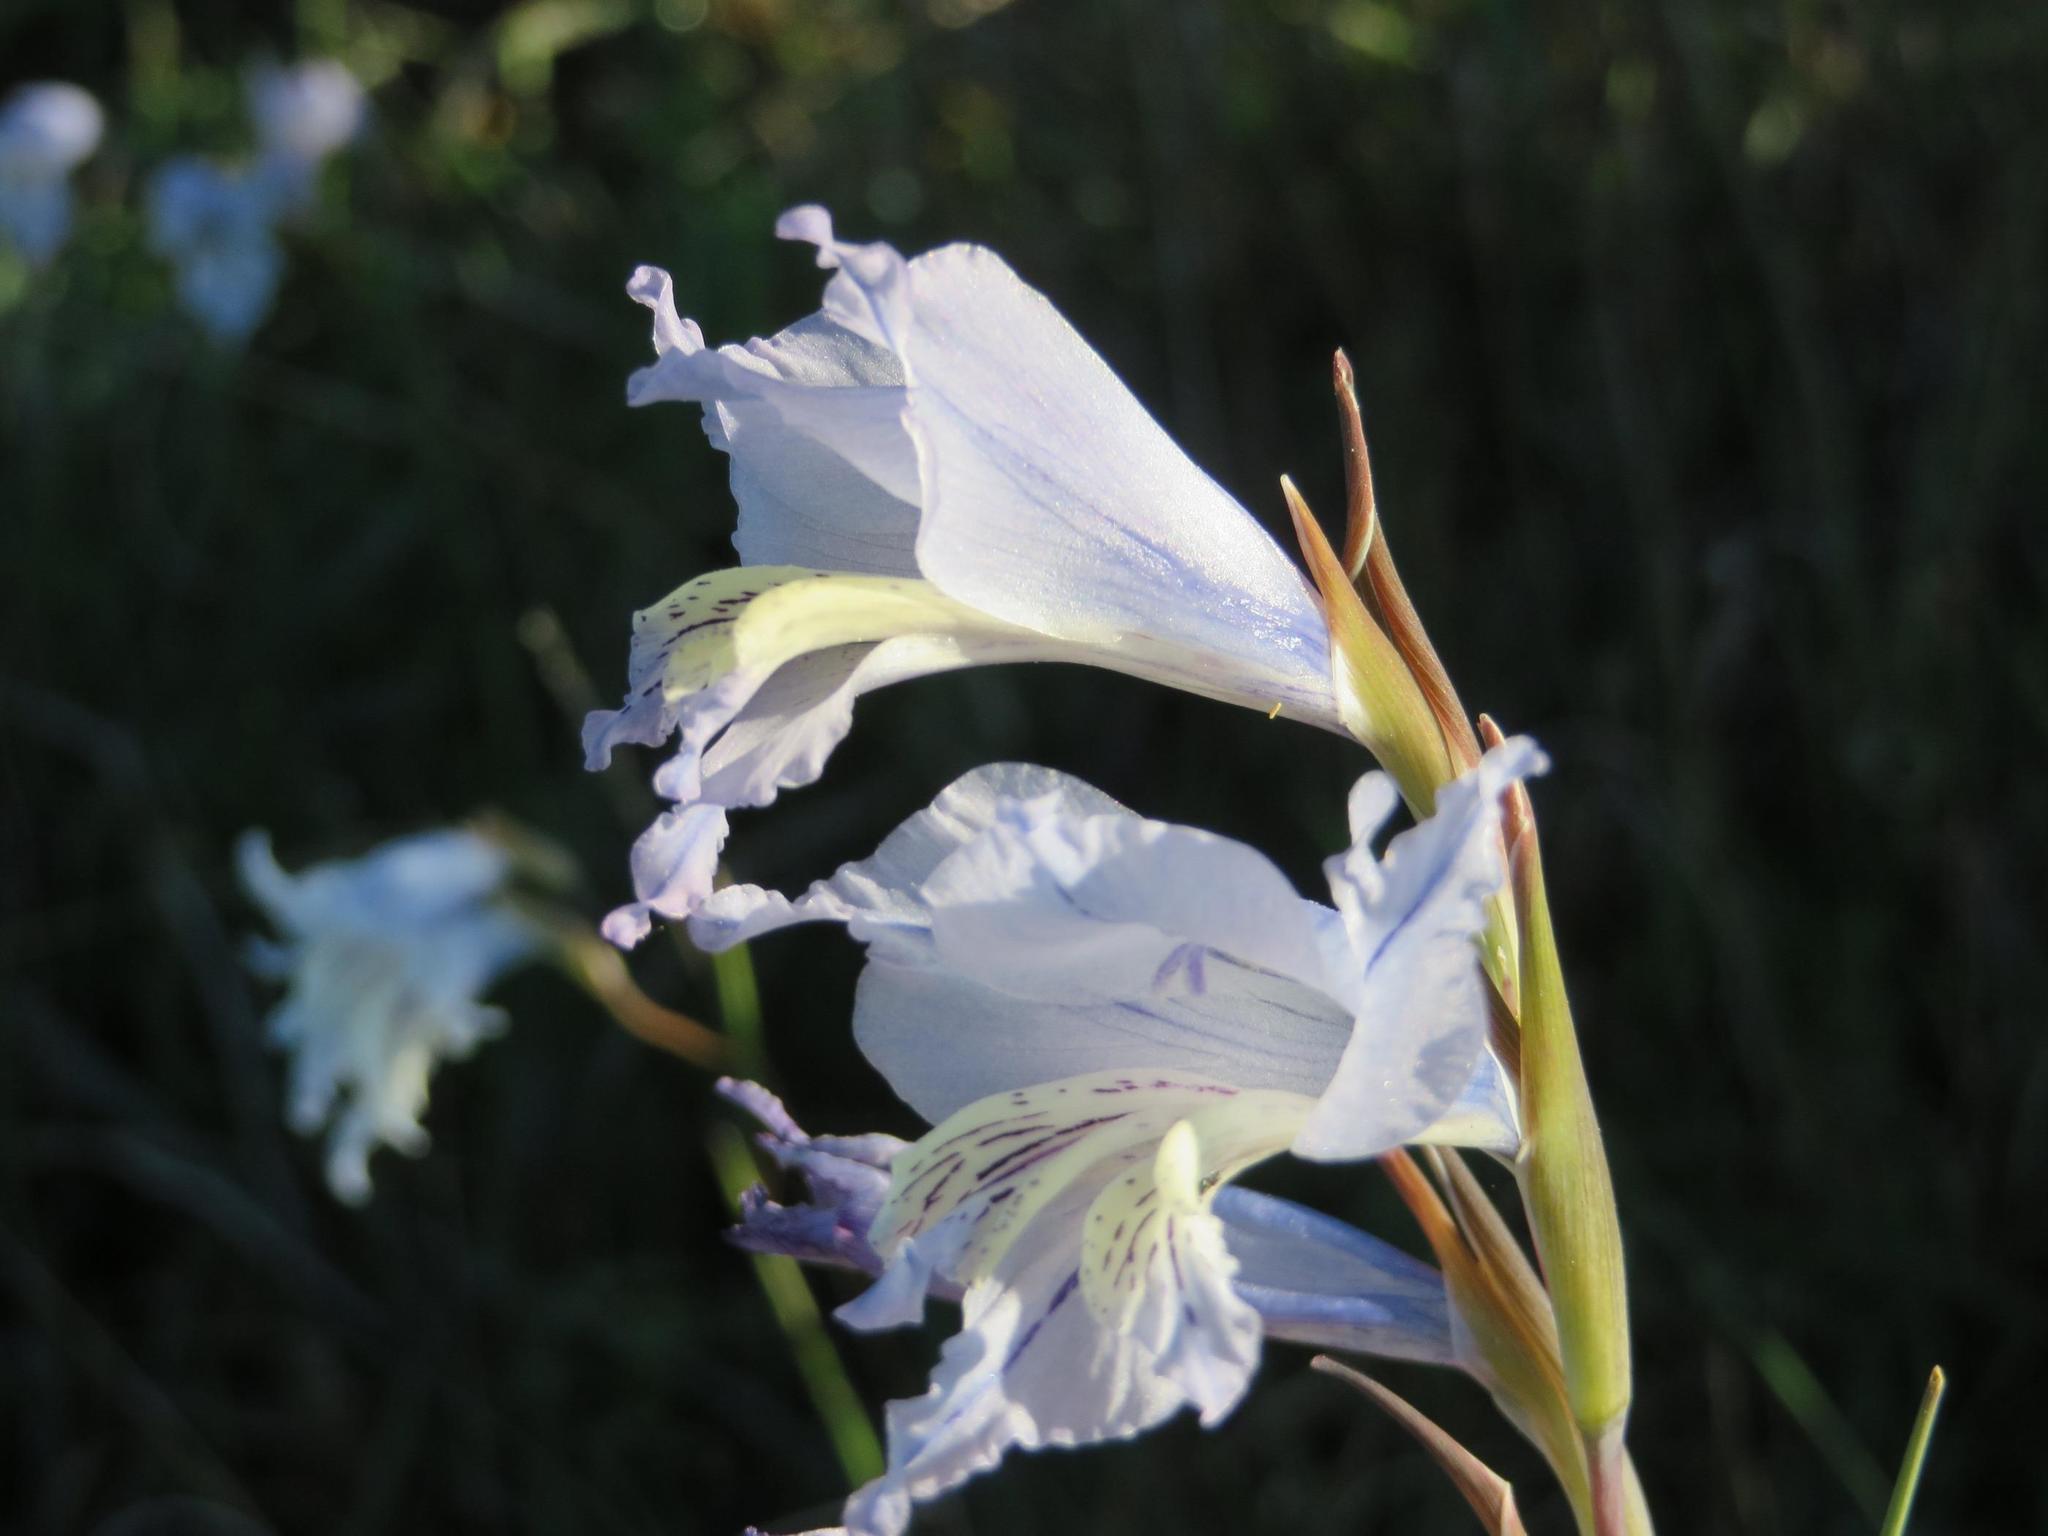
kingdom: Plantae
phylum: Tracheophyta
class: Liliopsida
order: Asparagales
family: Iridaceae
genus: Gladiolus
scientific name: Gladiolus gracilis
